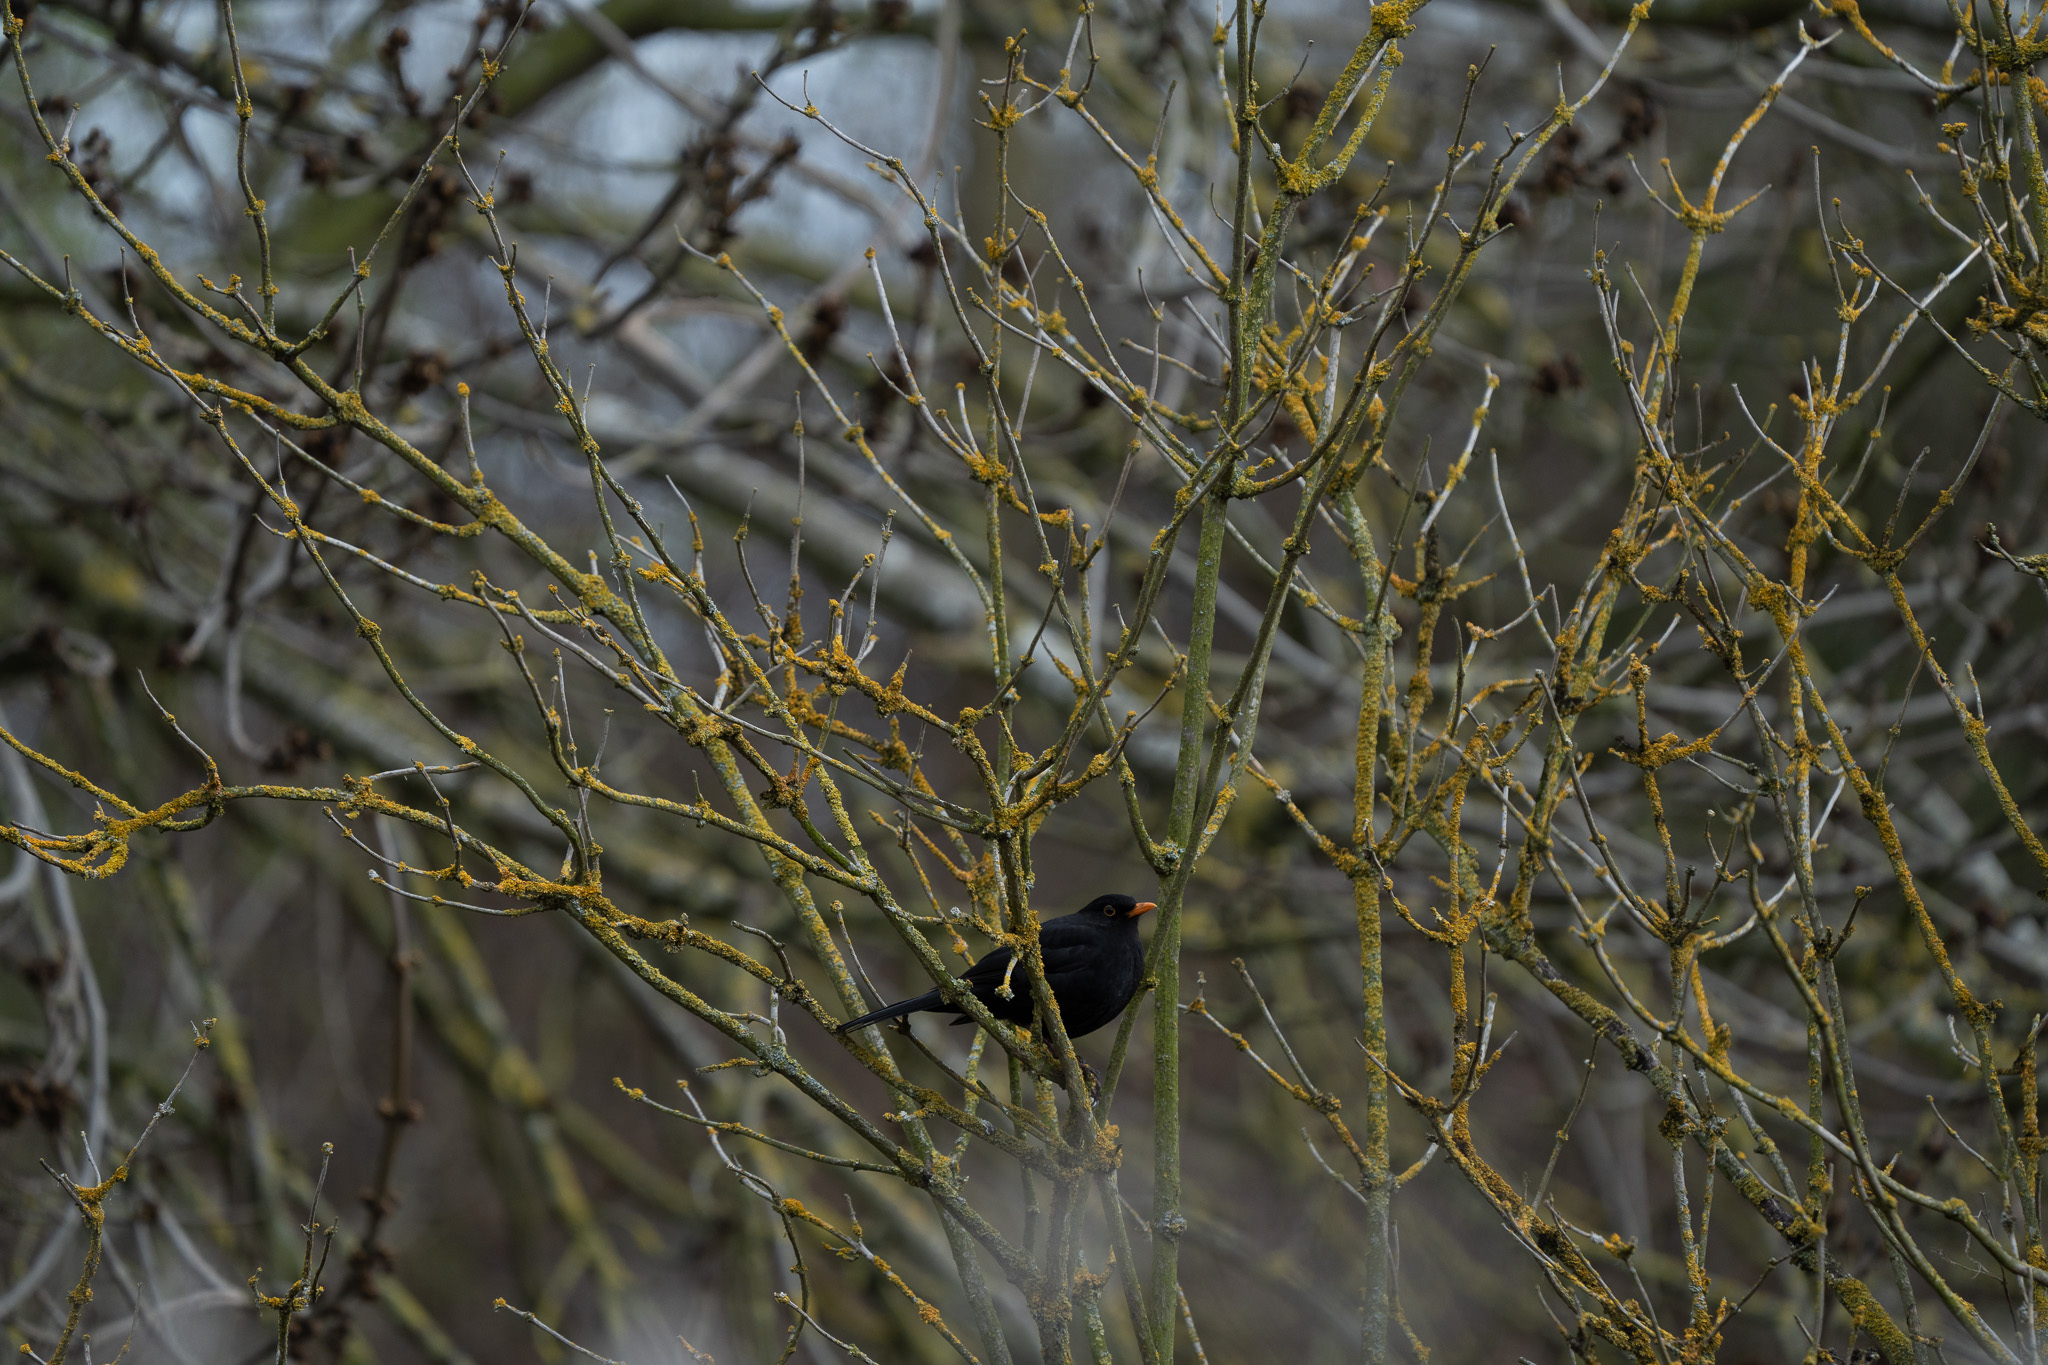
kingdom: Animalia
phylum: Chordata
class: Aves
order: Passeriformes
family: Turdidae
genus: Turdus
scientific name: Turdus merula
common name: Common blackbird
